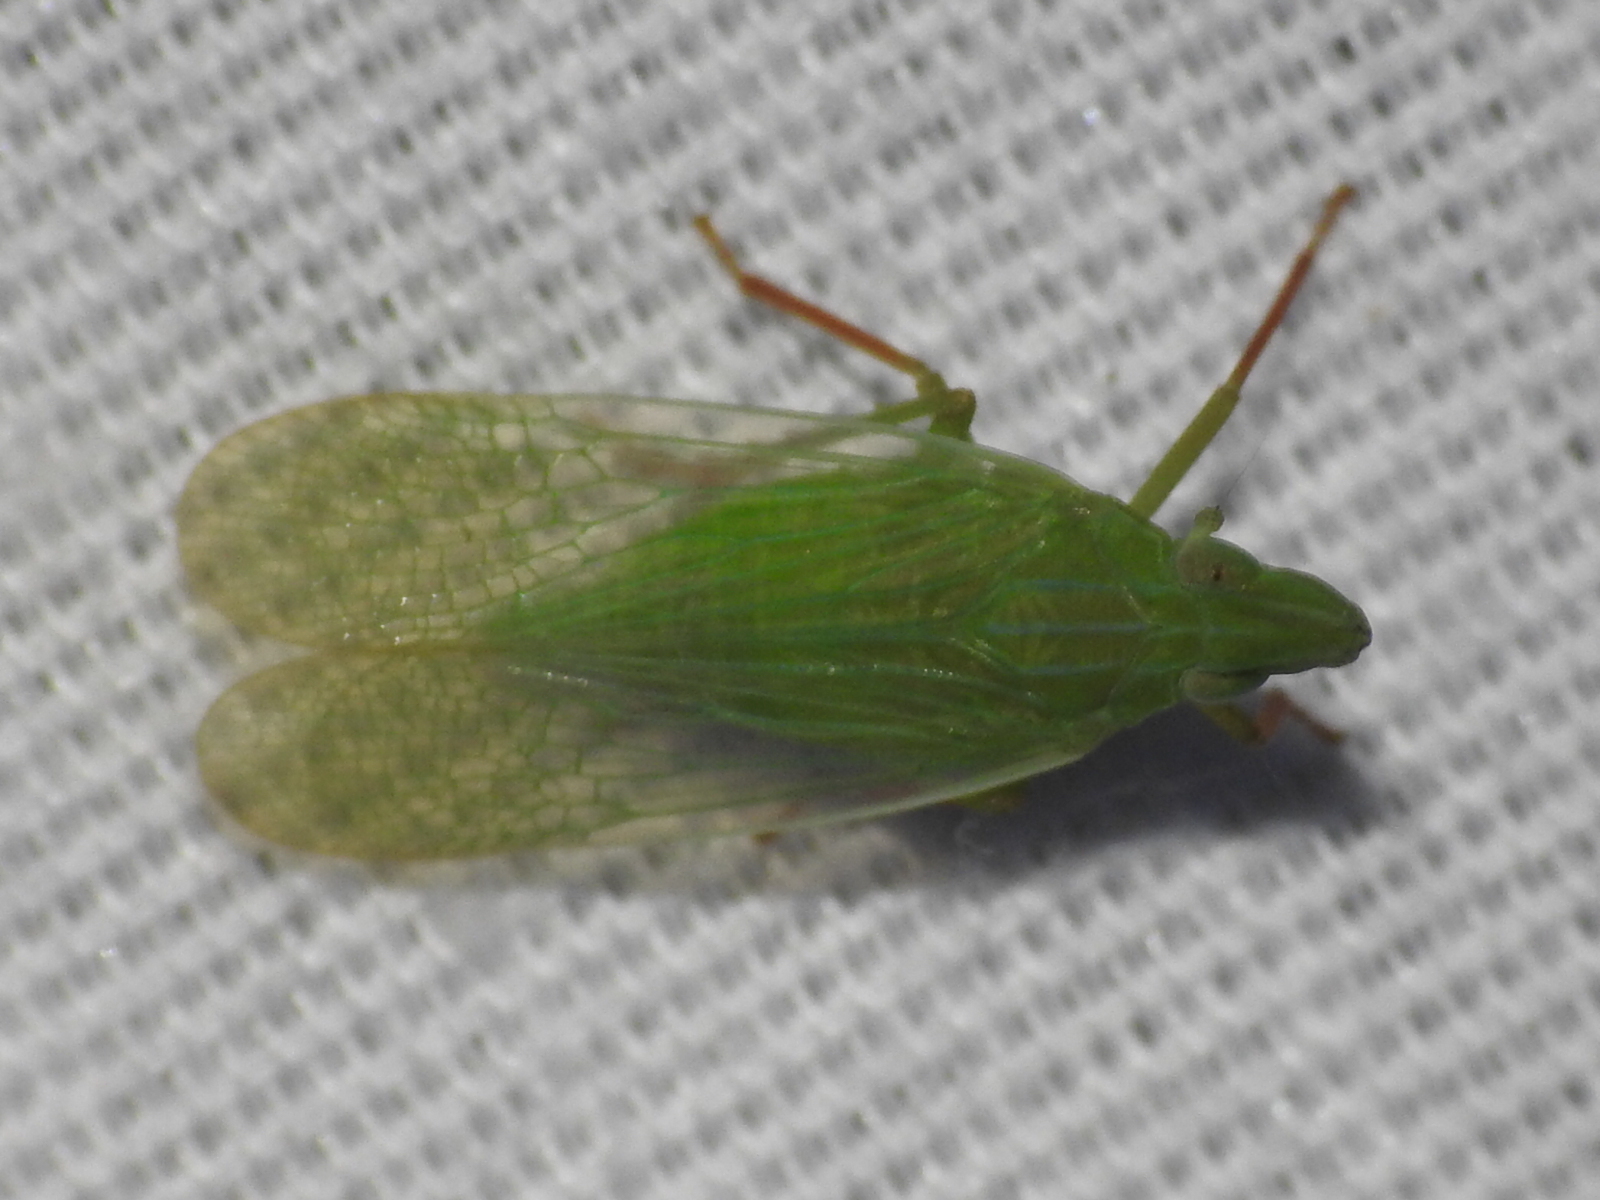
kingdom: Animalia
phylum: Arthropoda
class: Insecta
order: Hemiptera
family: Dictyopharidae
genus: Rhynchomitra
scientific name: Rhynchomitra recurva
